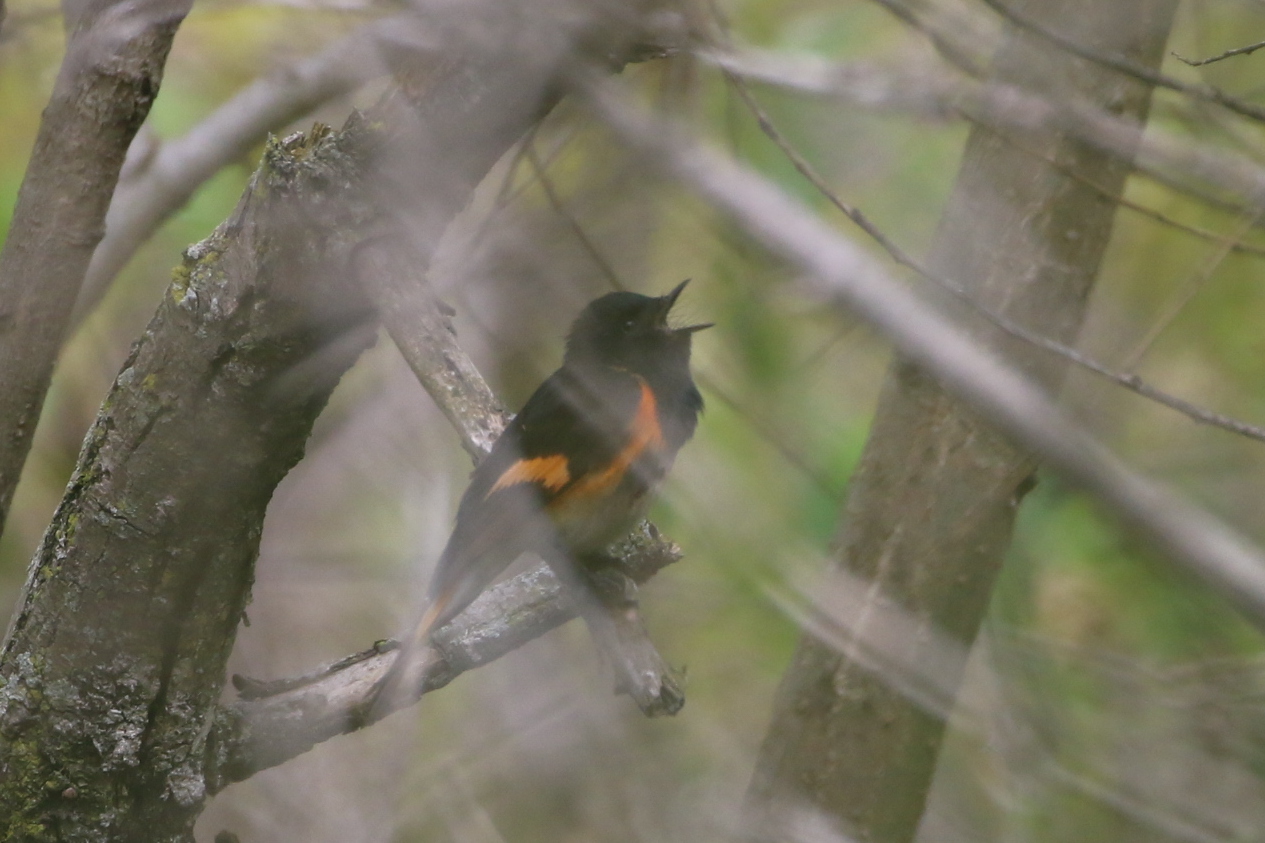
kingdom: Animalia
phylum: Chordata
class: Aves
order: Passeriformes
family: Parulidae
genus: Setophaga
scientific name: Setophaga ruticilla
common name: American redstart
